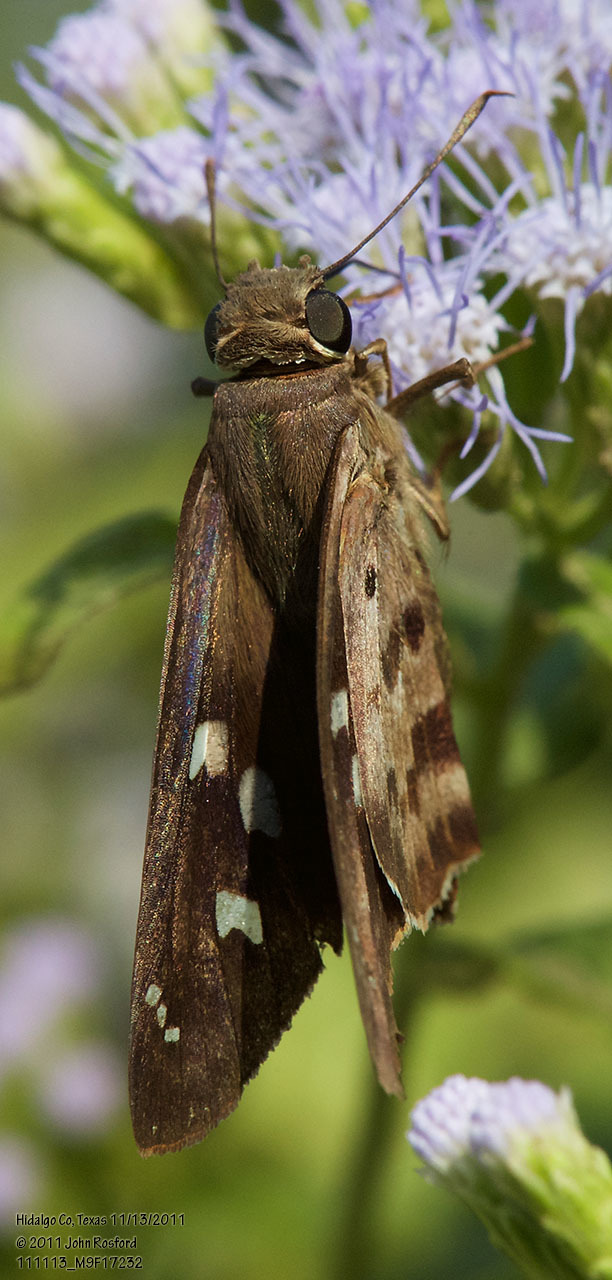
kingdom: Animalia
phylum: Arthropoda
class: Insecta
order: Lepidoptera
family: Hesperiidae
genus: Polygonus
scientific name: Polygonus leo
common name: Hammoch skipper
